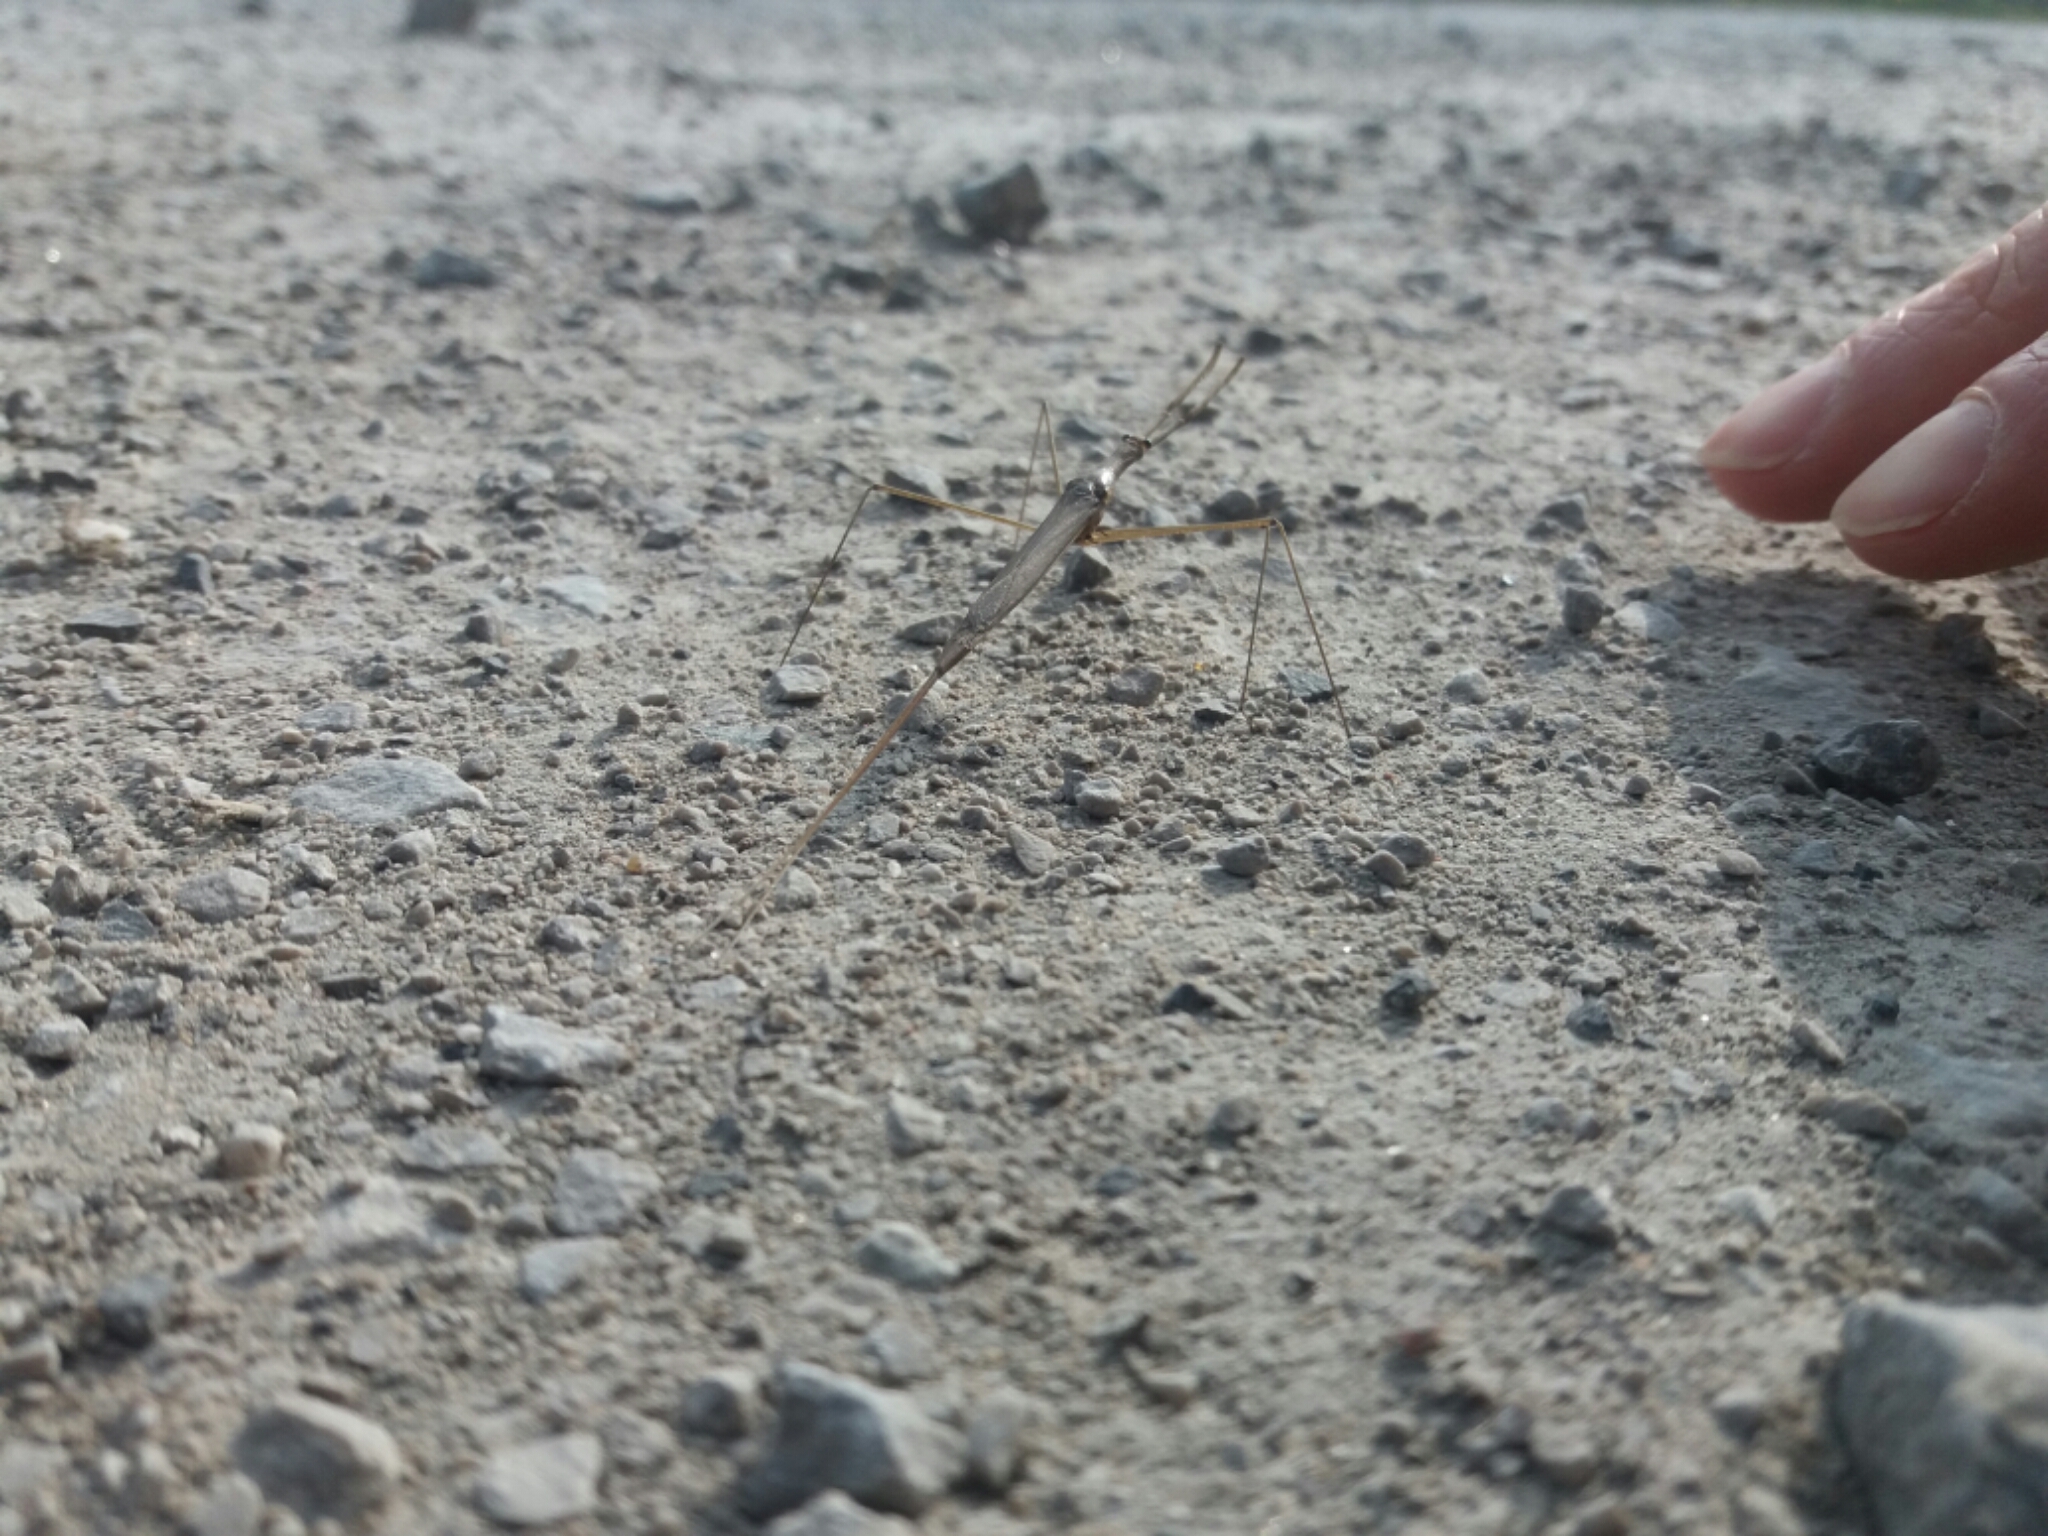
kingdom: Animalia
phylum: Arthropoda
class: Insecta
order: Hemiptera
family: Nepidae
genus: Ranatra
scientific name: Ranatra linearis
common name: Water stick insect
